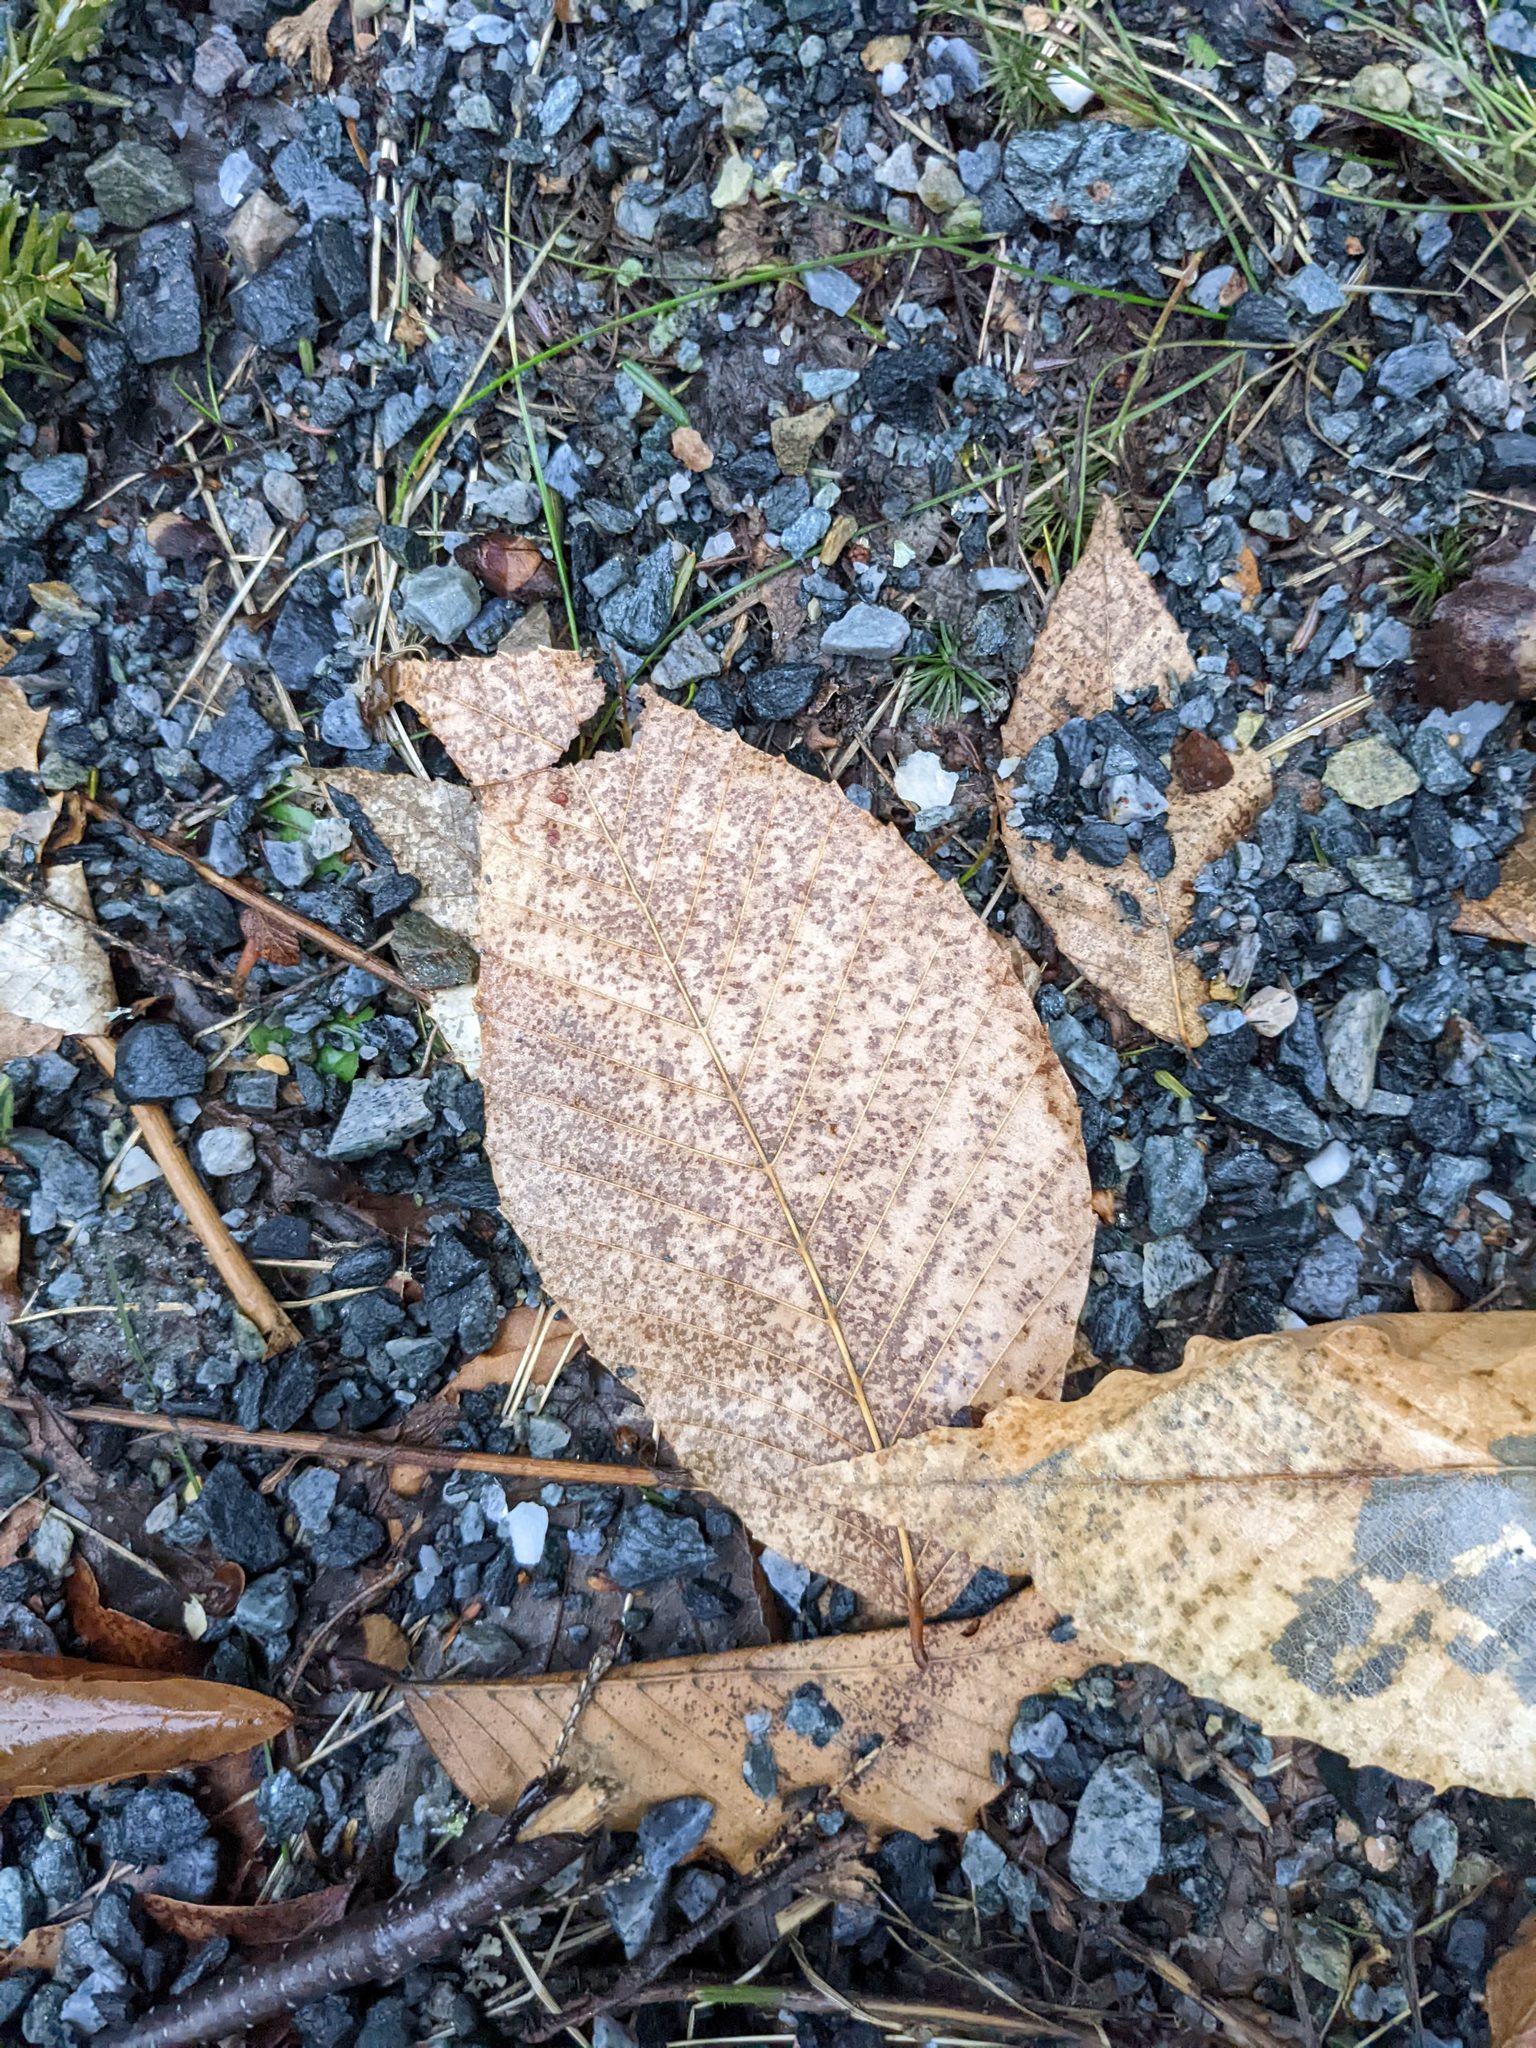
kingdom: Plantae
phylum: Tracheophyta
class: Magnoliopsida
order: Fagales
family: Fagaceae
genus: Fagus
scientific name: Fagus grandifolia
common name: American beech
